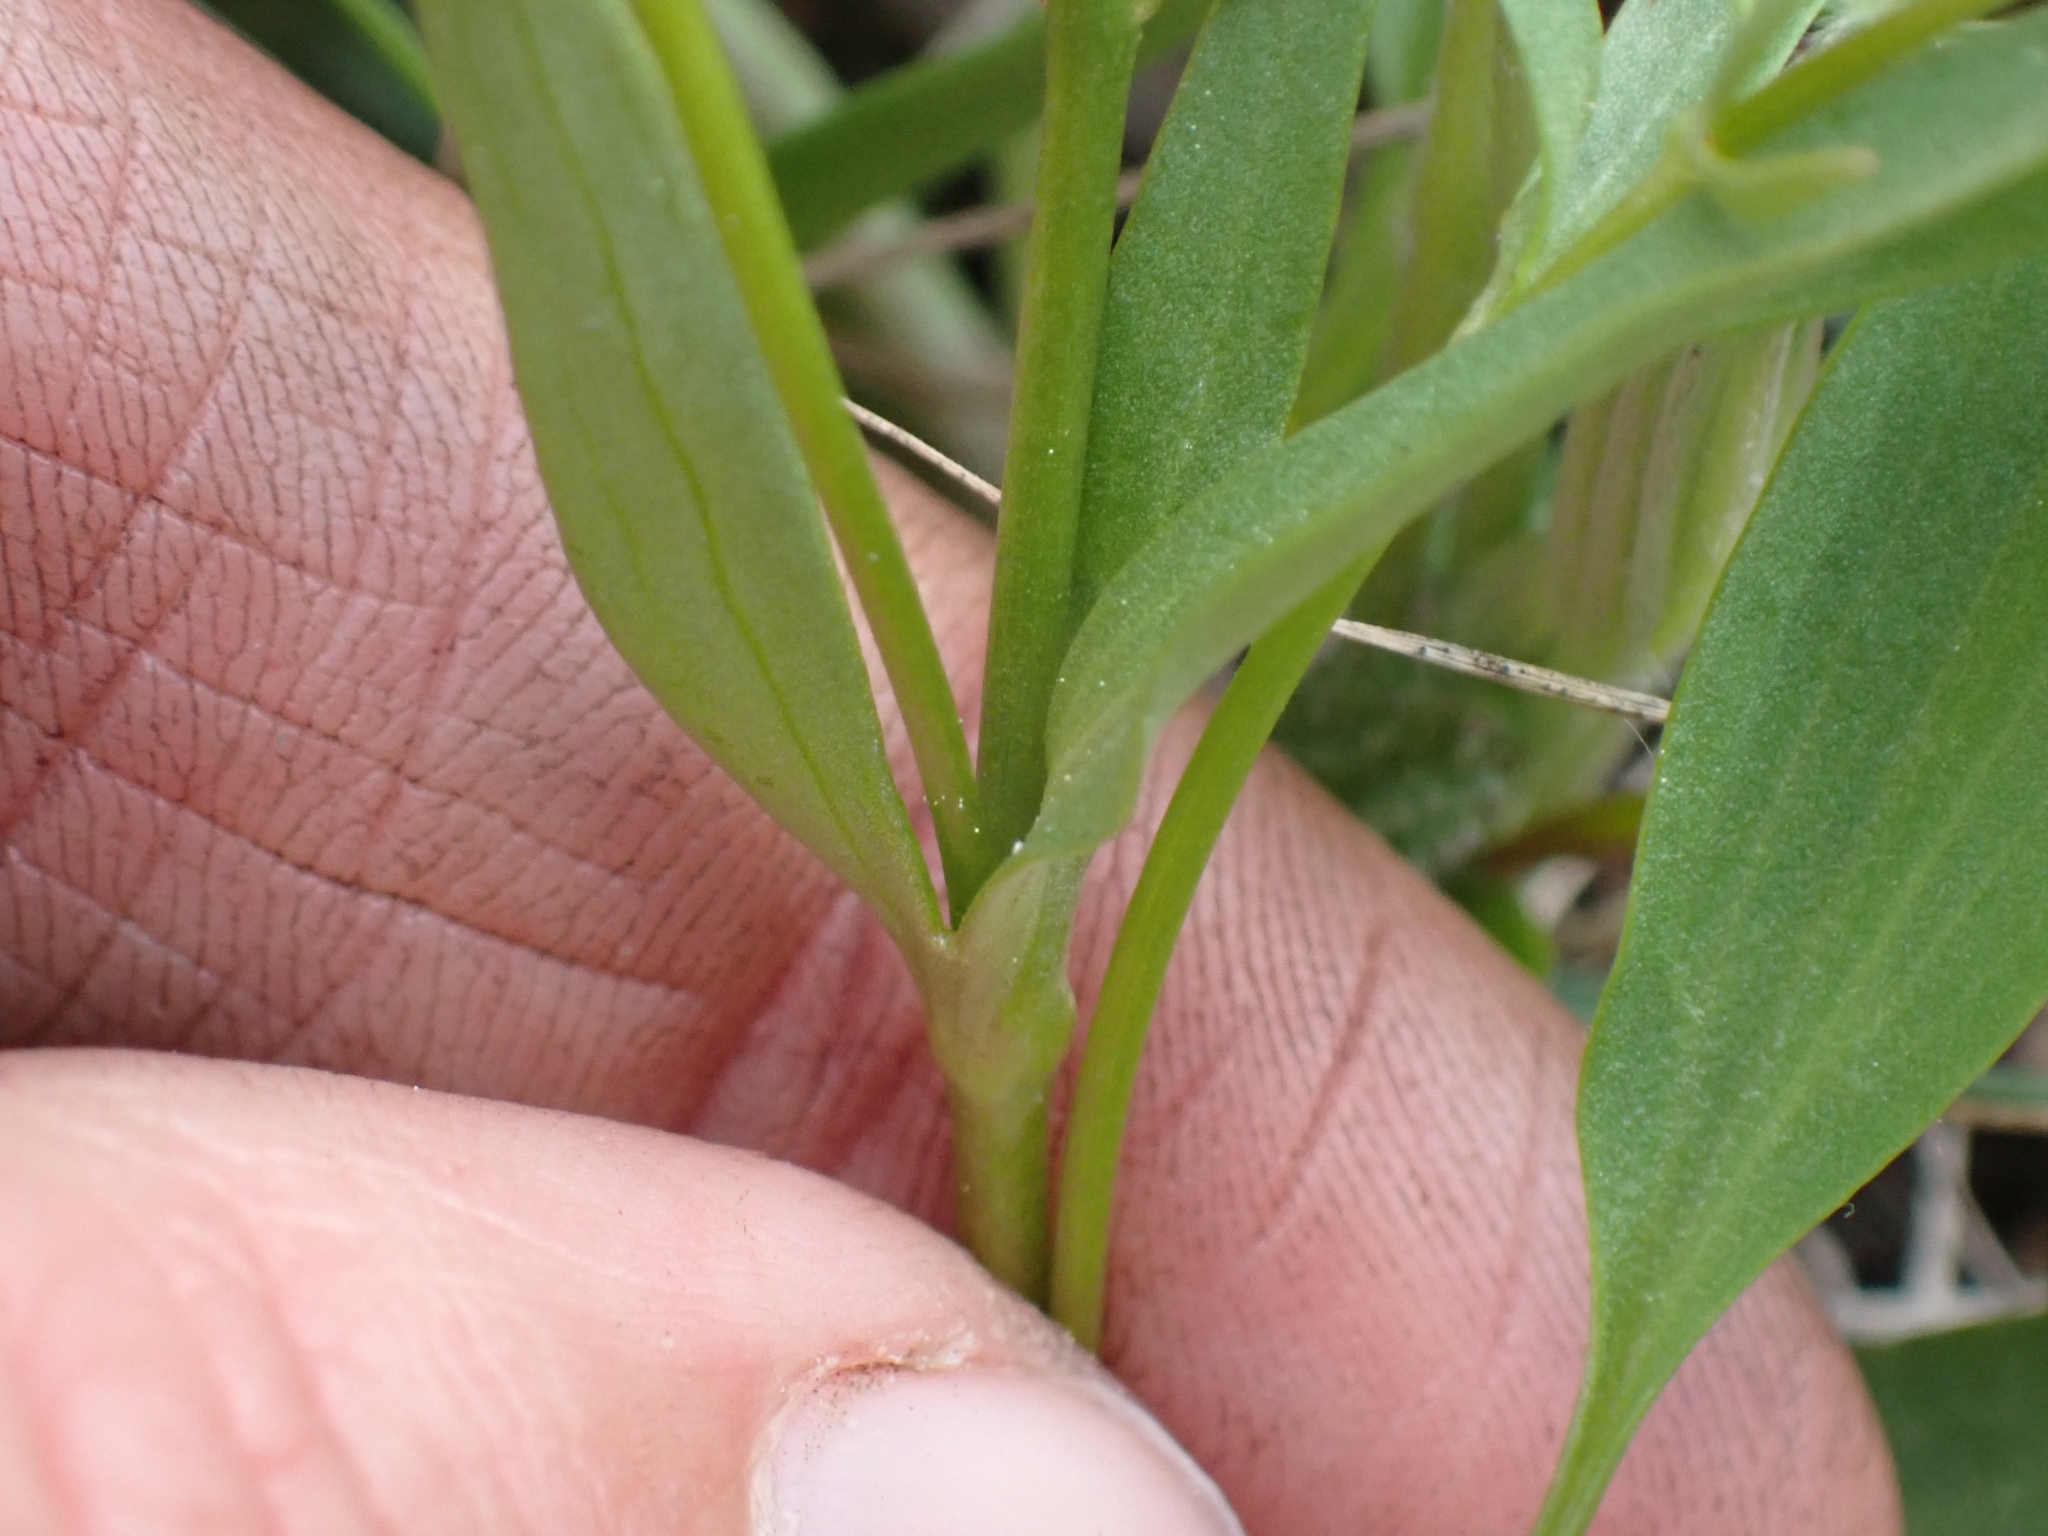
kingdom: Plantae
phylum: Tracheophyta
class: Magnoliopsida
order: Ranunculales
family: Ranunculaceae
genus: Ranunculus
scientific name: Ranunculus glaberrimus
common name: Sagebrush buttercup
